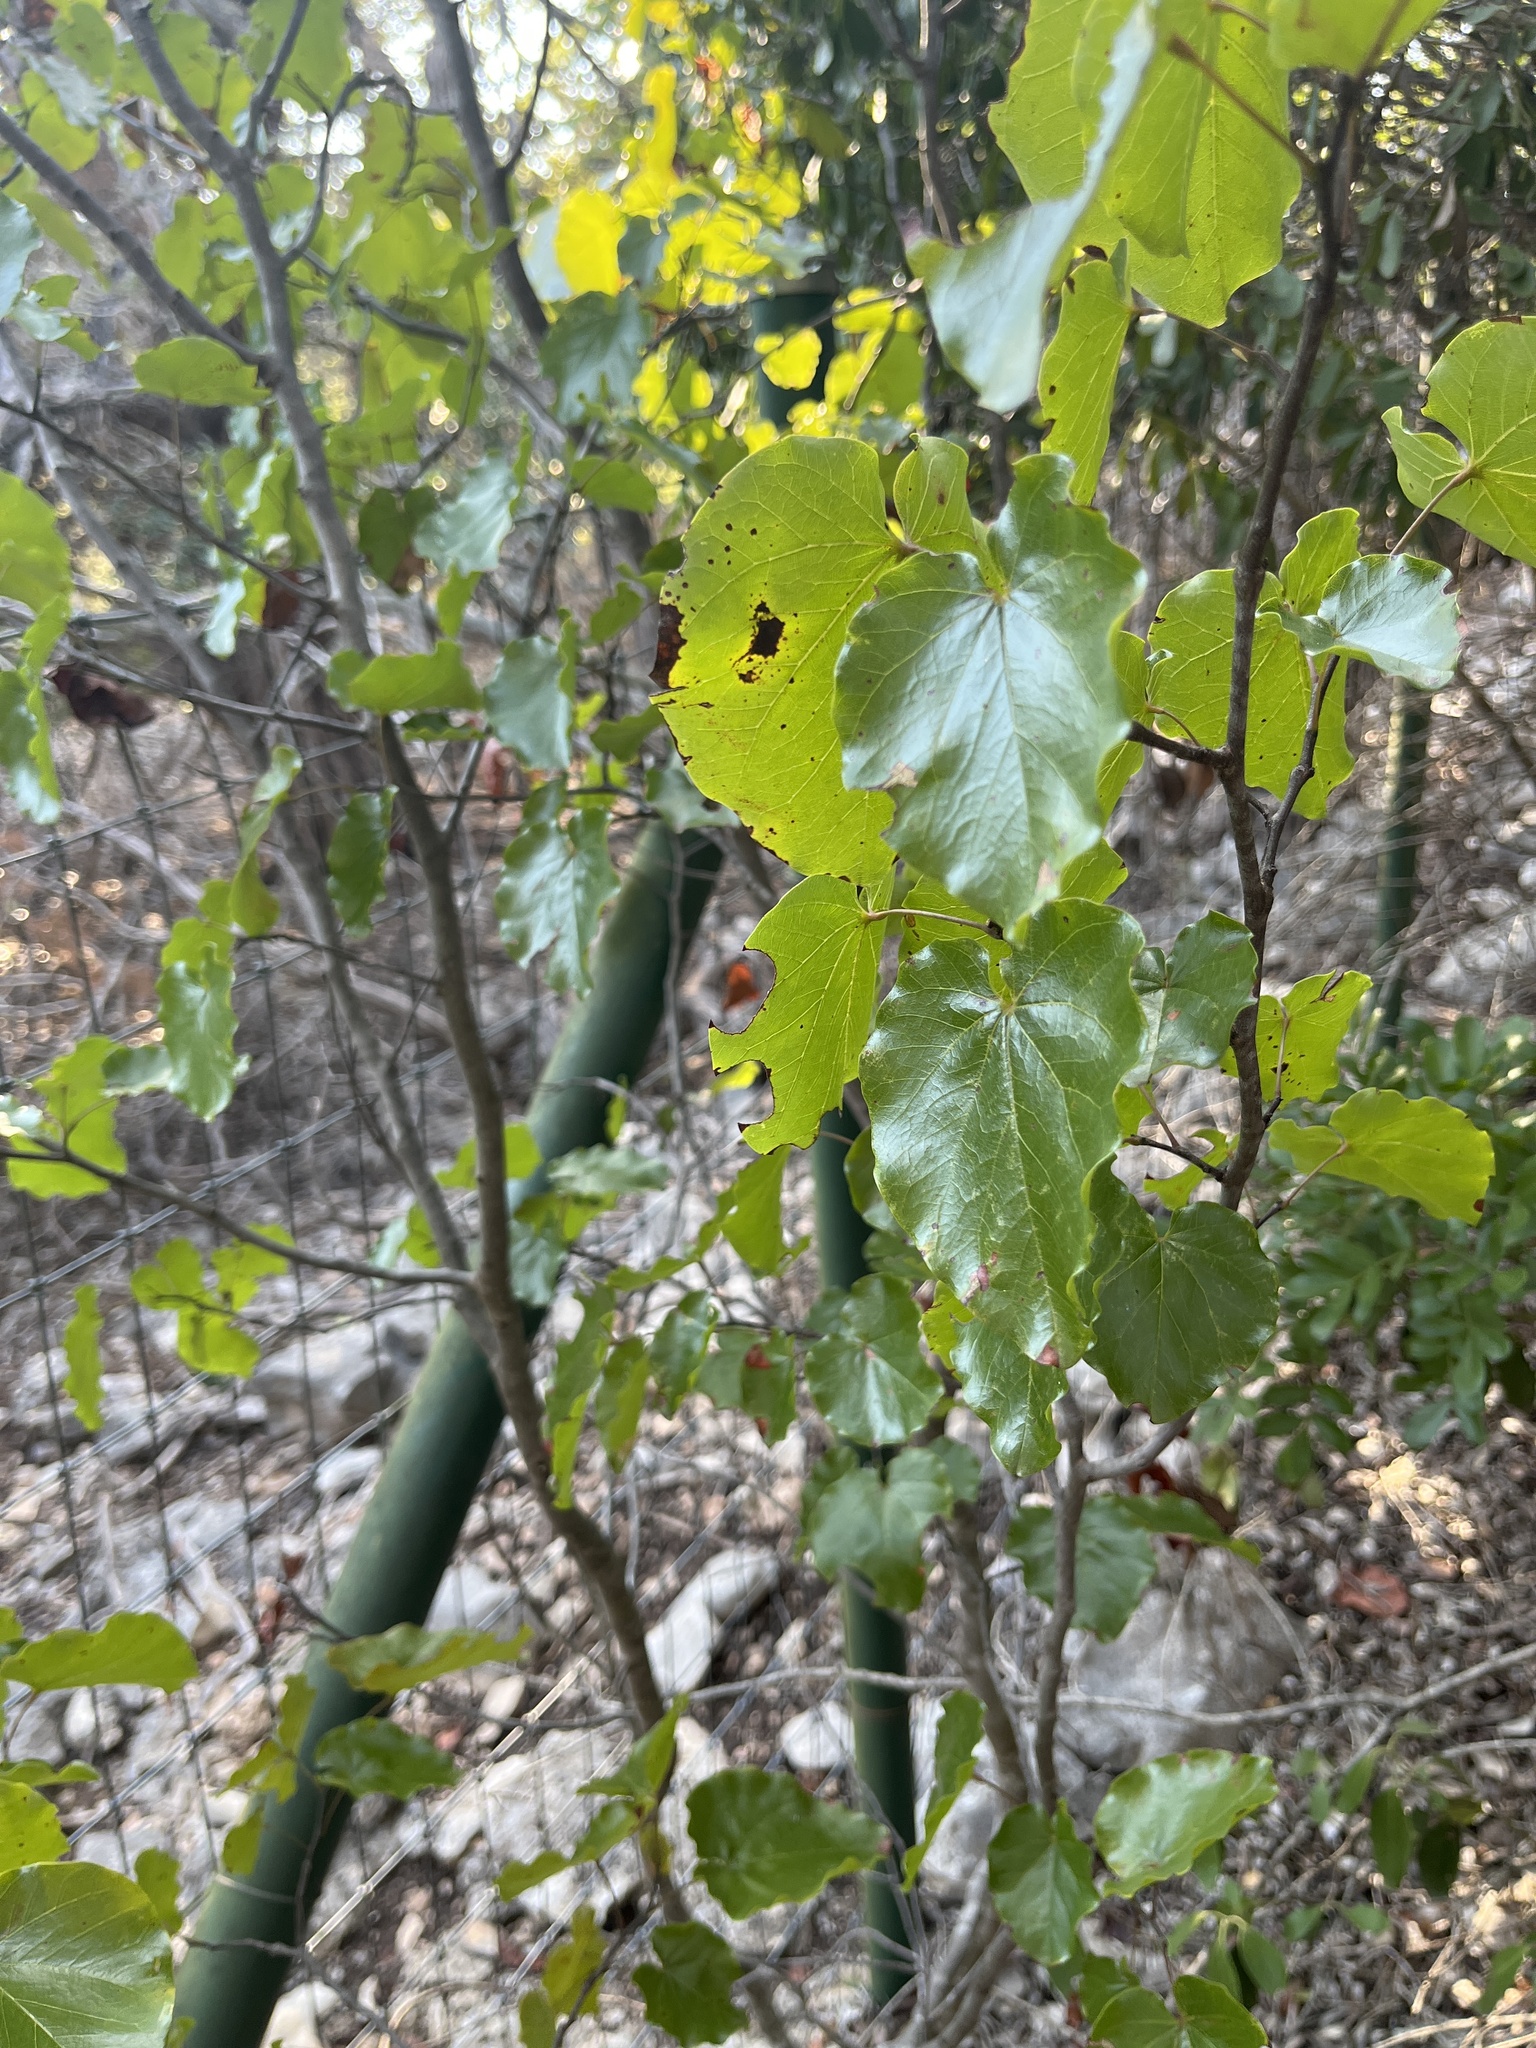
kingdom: Plantae
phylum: Tracheophyta
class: Magnoliopsida
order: Fabales
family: Fabaceae
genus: Cercis
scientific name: Cercis canadensis
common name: Eastern redbud
